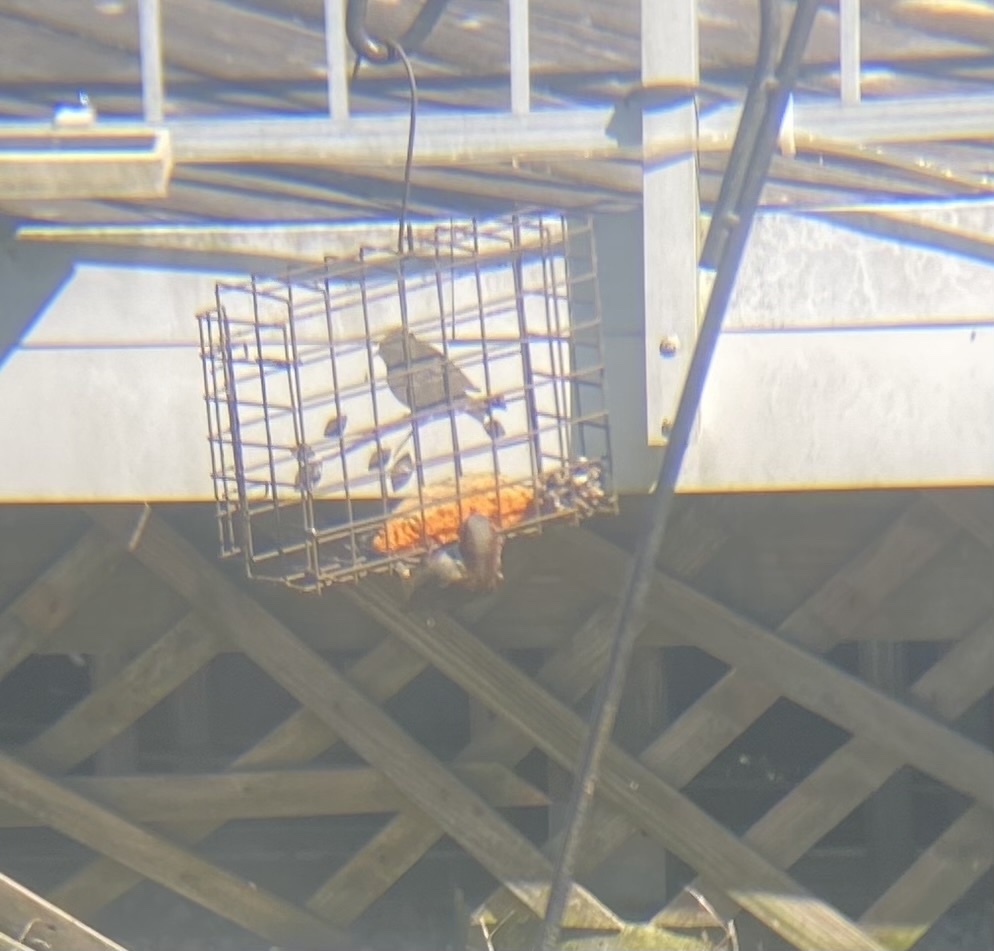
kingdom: Animalia
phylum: Chordata
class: Aves
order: Passeriformes
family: Passeridae
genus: Passer
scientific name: Passer domesticus
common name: House sparrow
